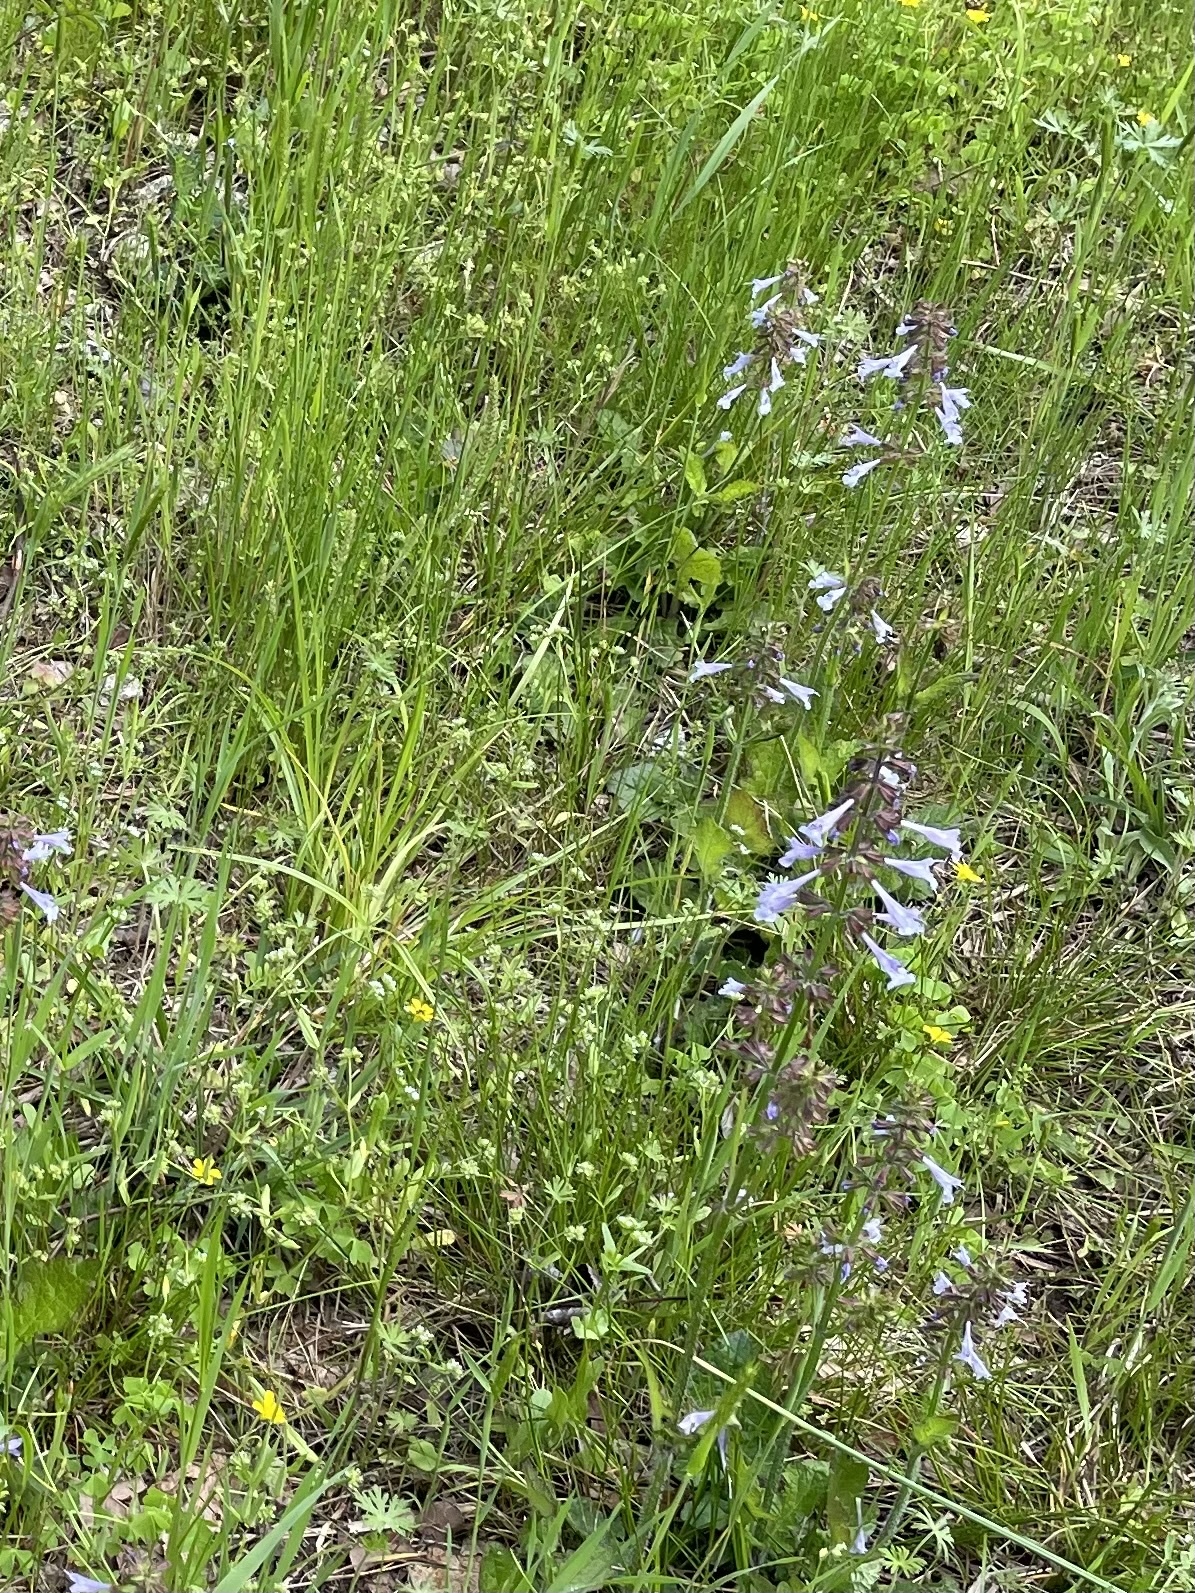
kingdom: Plantae
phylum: Tracheophyta
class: Magnoliopsida
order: Lamiales
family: Lamiaceae
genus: Salvia
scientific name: Salvia lyrata
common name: Cancerweed
